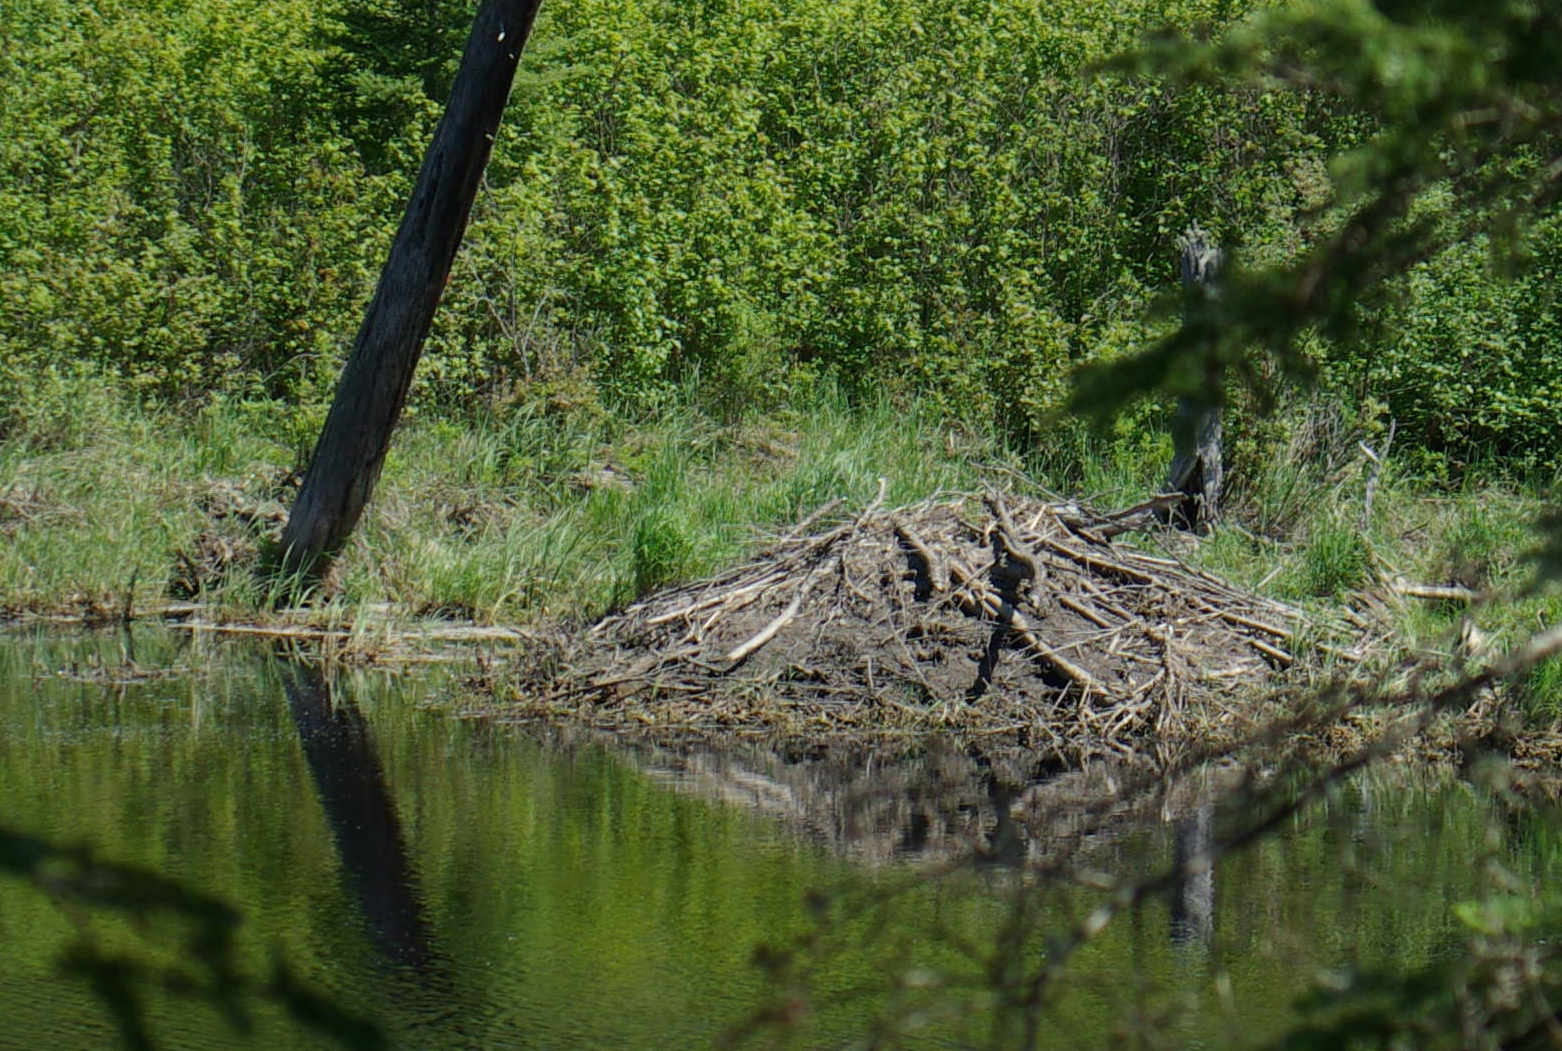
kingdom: Animalia
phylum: Chordata
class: Mammalia
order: Rodentia
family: Castoridae
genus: Castor
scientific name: Castor canadensis
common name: American beaver
